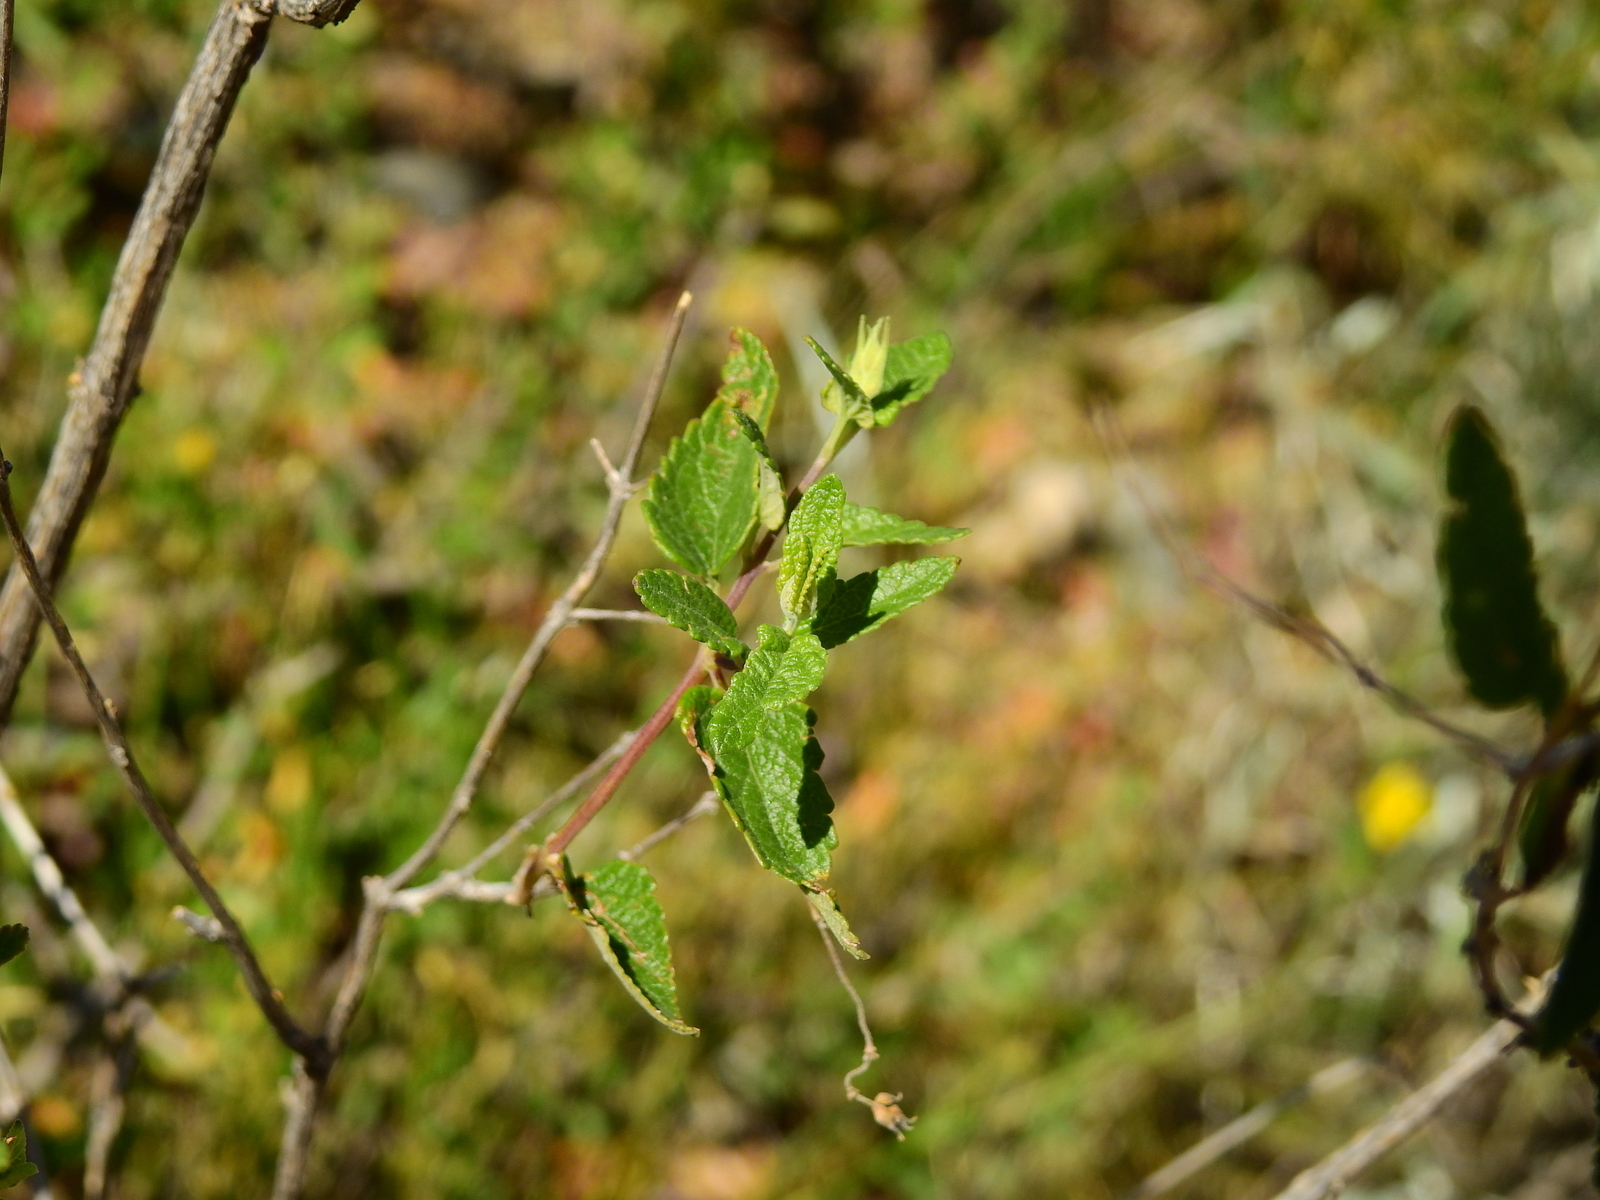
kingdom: Plantae
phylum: Tracheophyta
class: Magnoliopsida
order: Lamiales
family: Lamiaceae
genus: Salvia
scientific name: Salvia cuspidata
